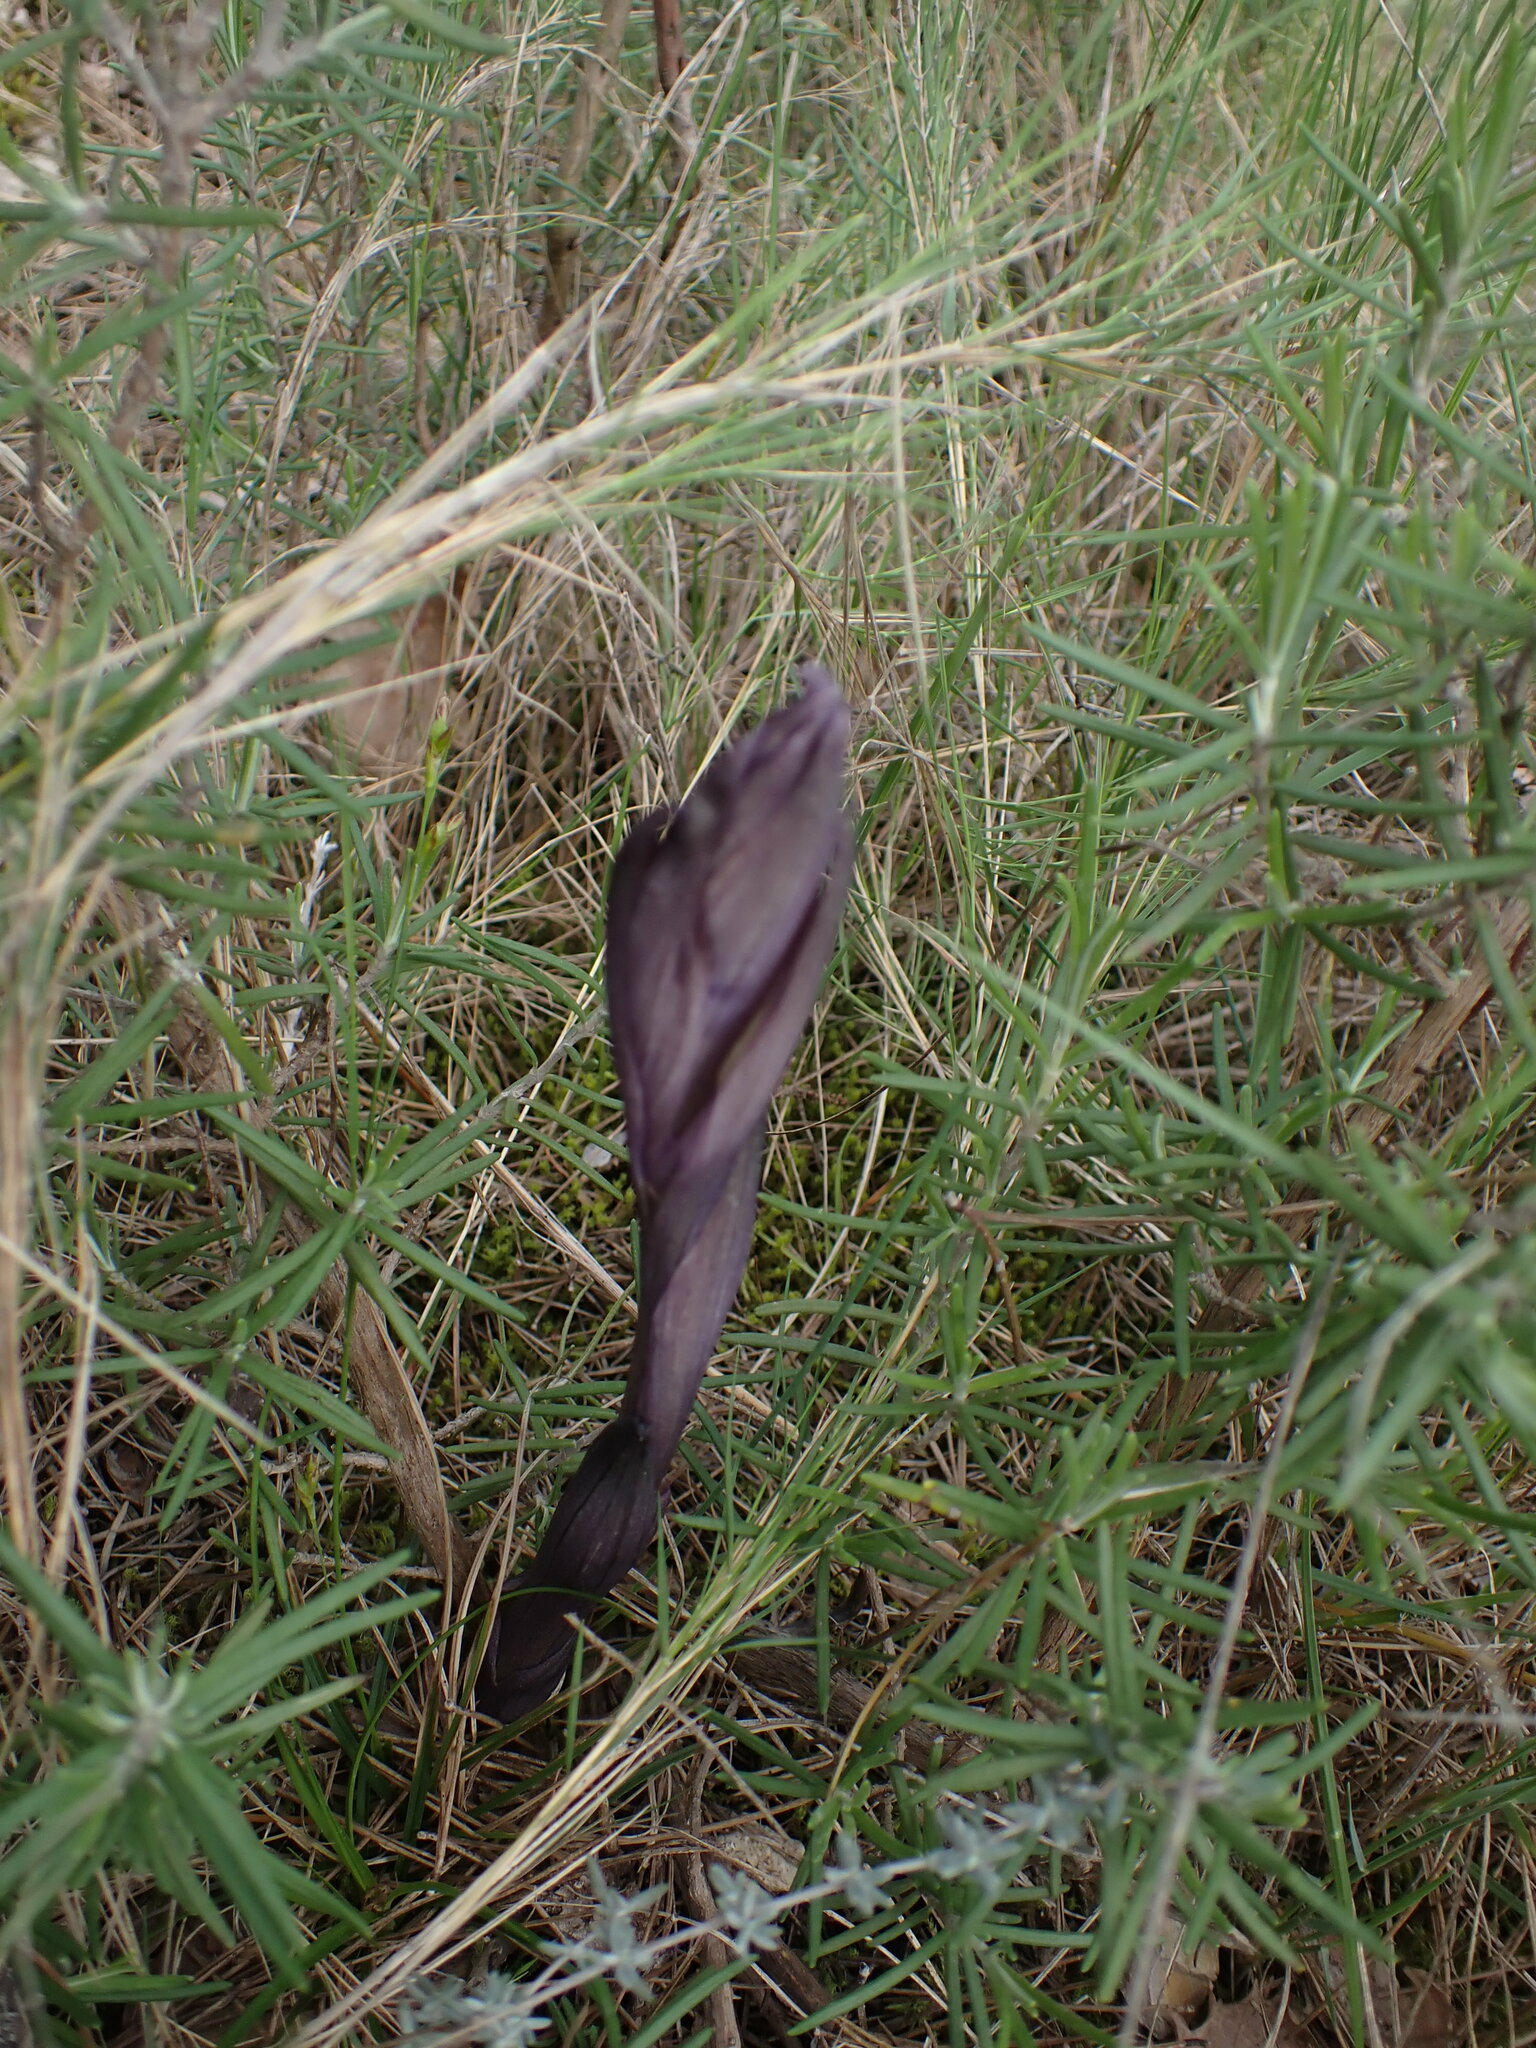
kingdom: Plantae
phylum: Tracheophyta
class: Liliopsida
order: Asparagales
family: Orchidaceae
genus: Limodorum
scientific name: Limodorum abortivum
